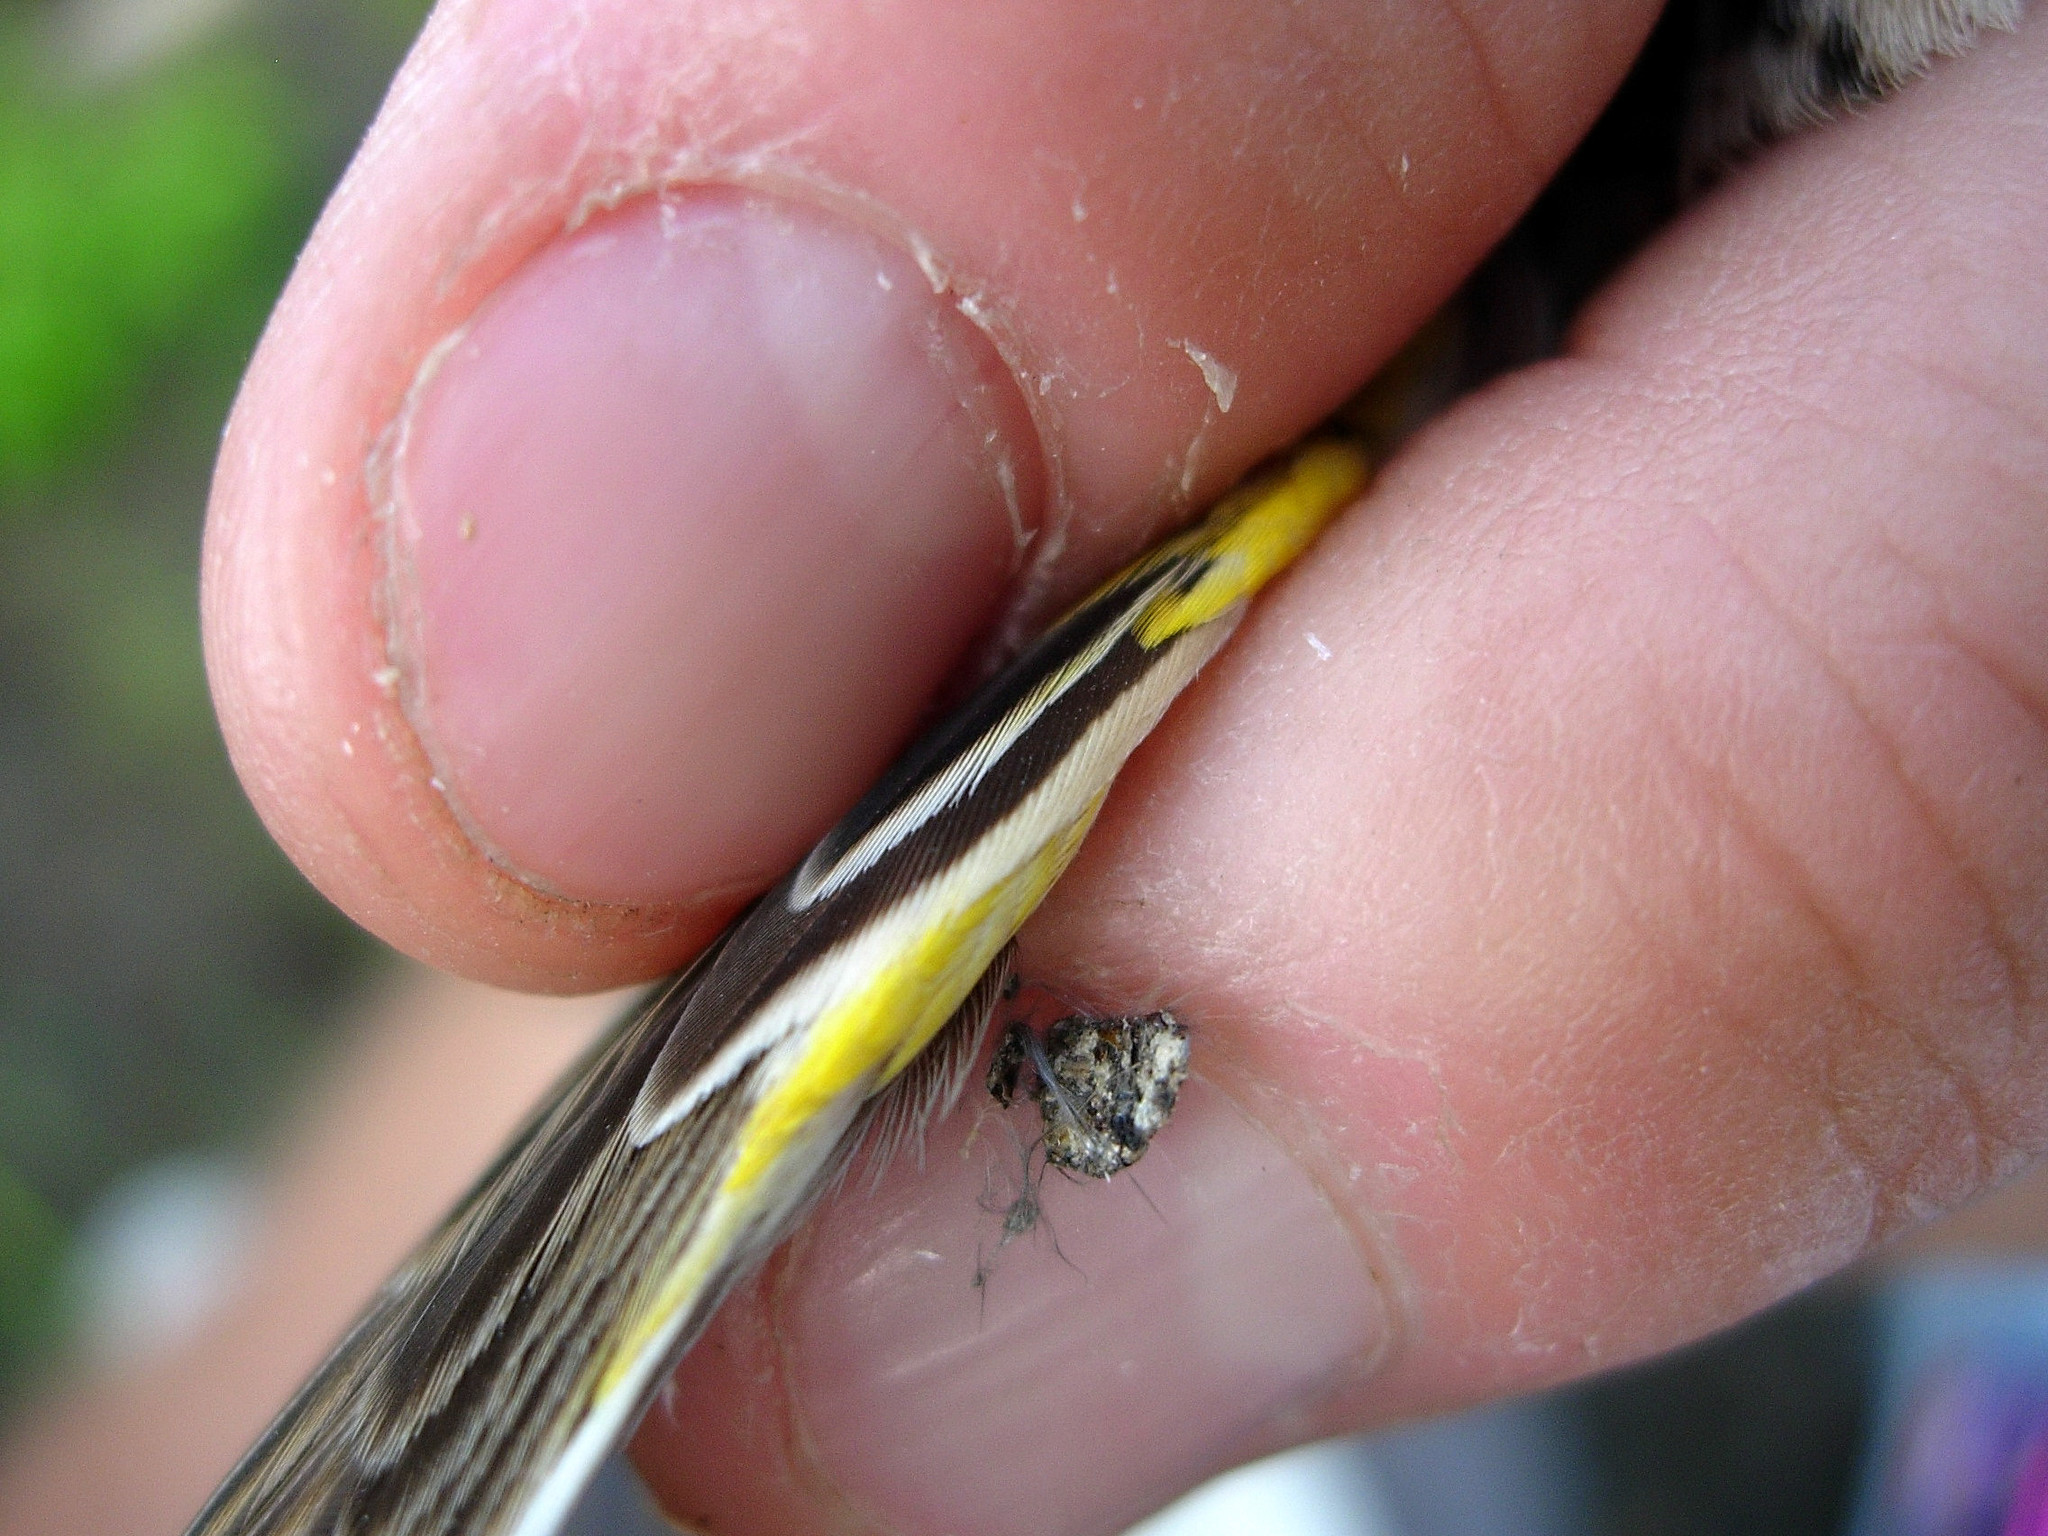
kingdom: Animalia
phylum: Chordata
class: Aves
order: Passeriformes
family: Passerellidae
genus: Ammodramus
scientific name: Ammodramus savannarum
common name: Grasshopper sparrow
